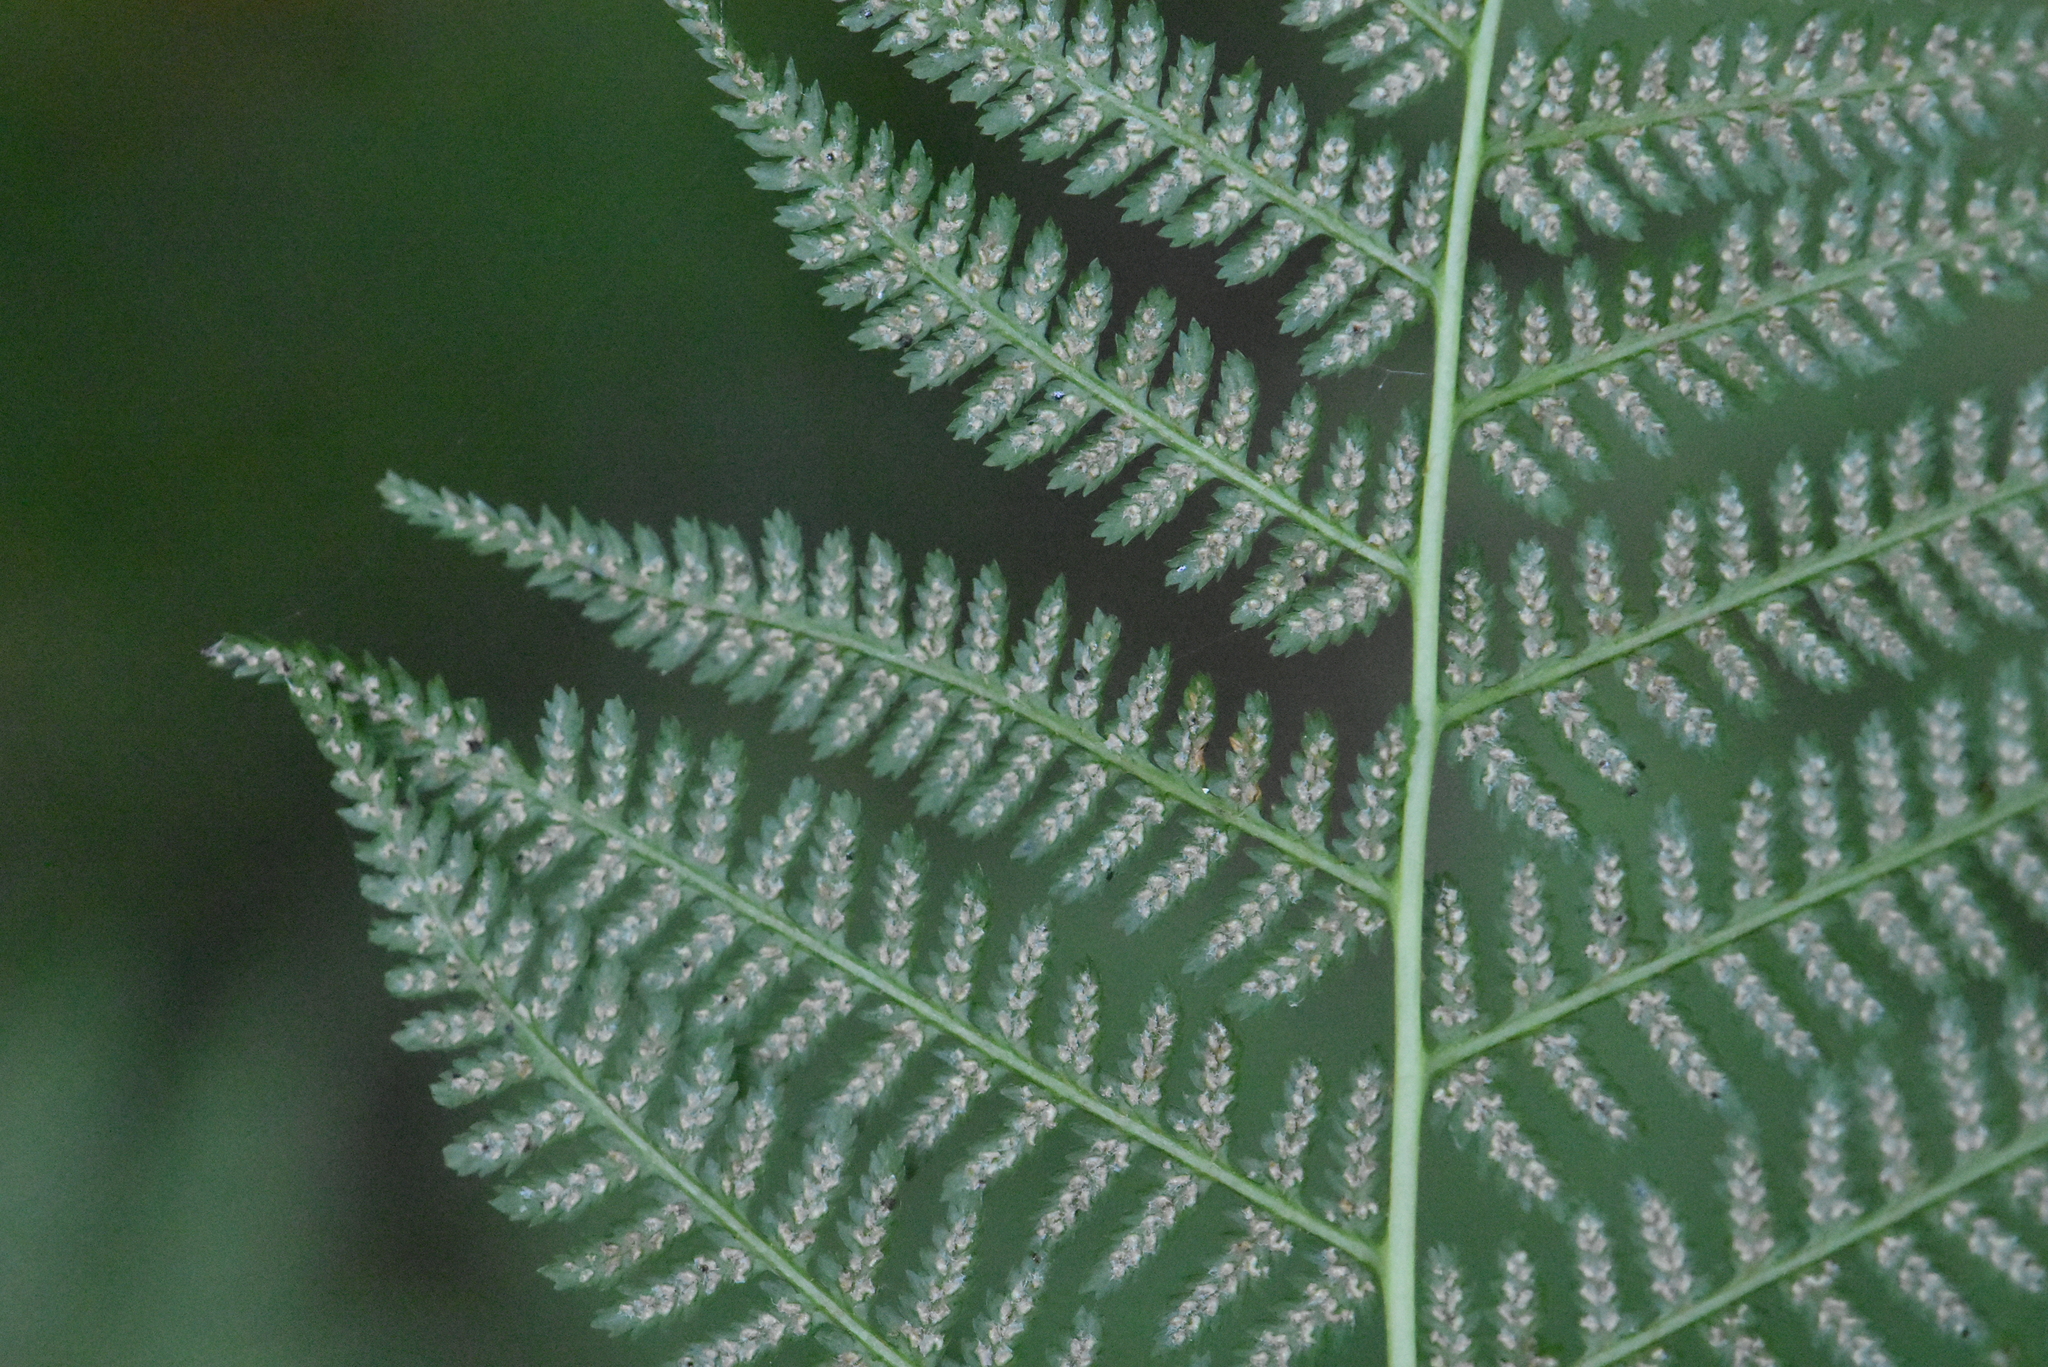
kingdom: Plantae
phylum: Tracheophyta
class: Polypodiopsida
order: Polypodiales
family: Athyriaceae
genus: Athyrium
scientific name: Athyrium filix-femina
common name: Lady fern
